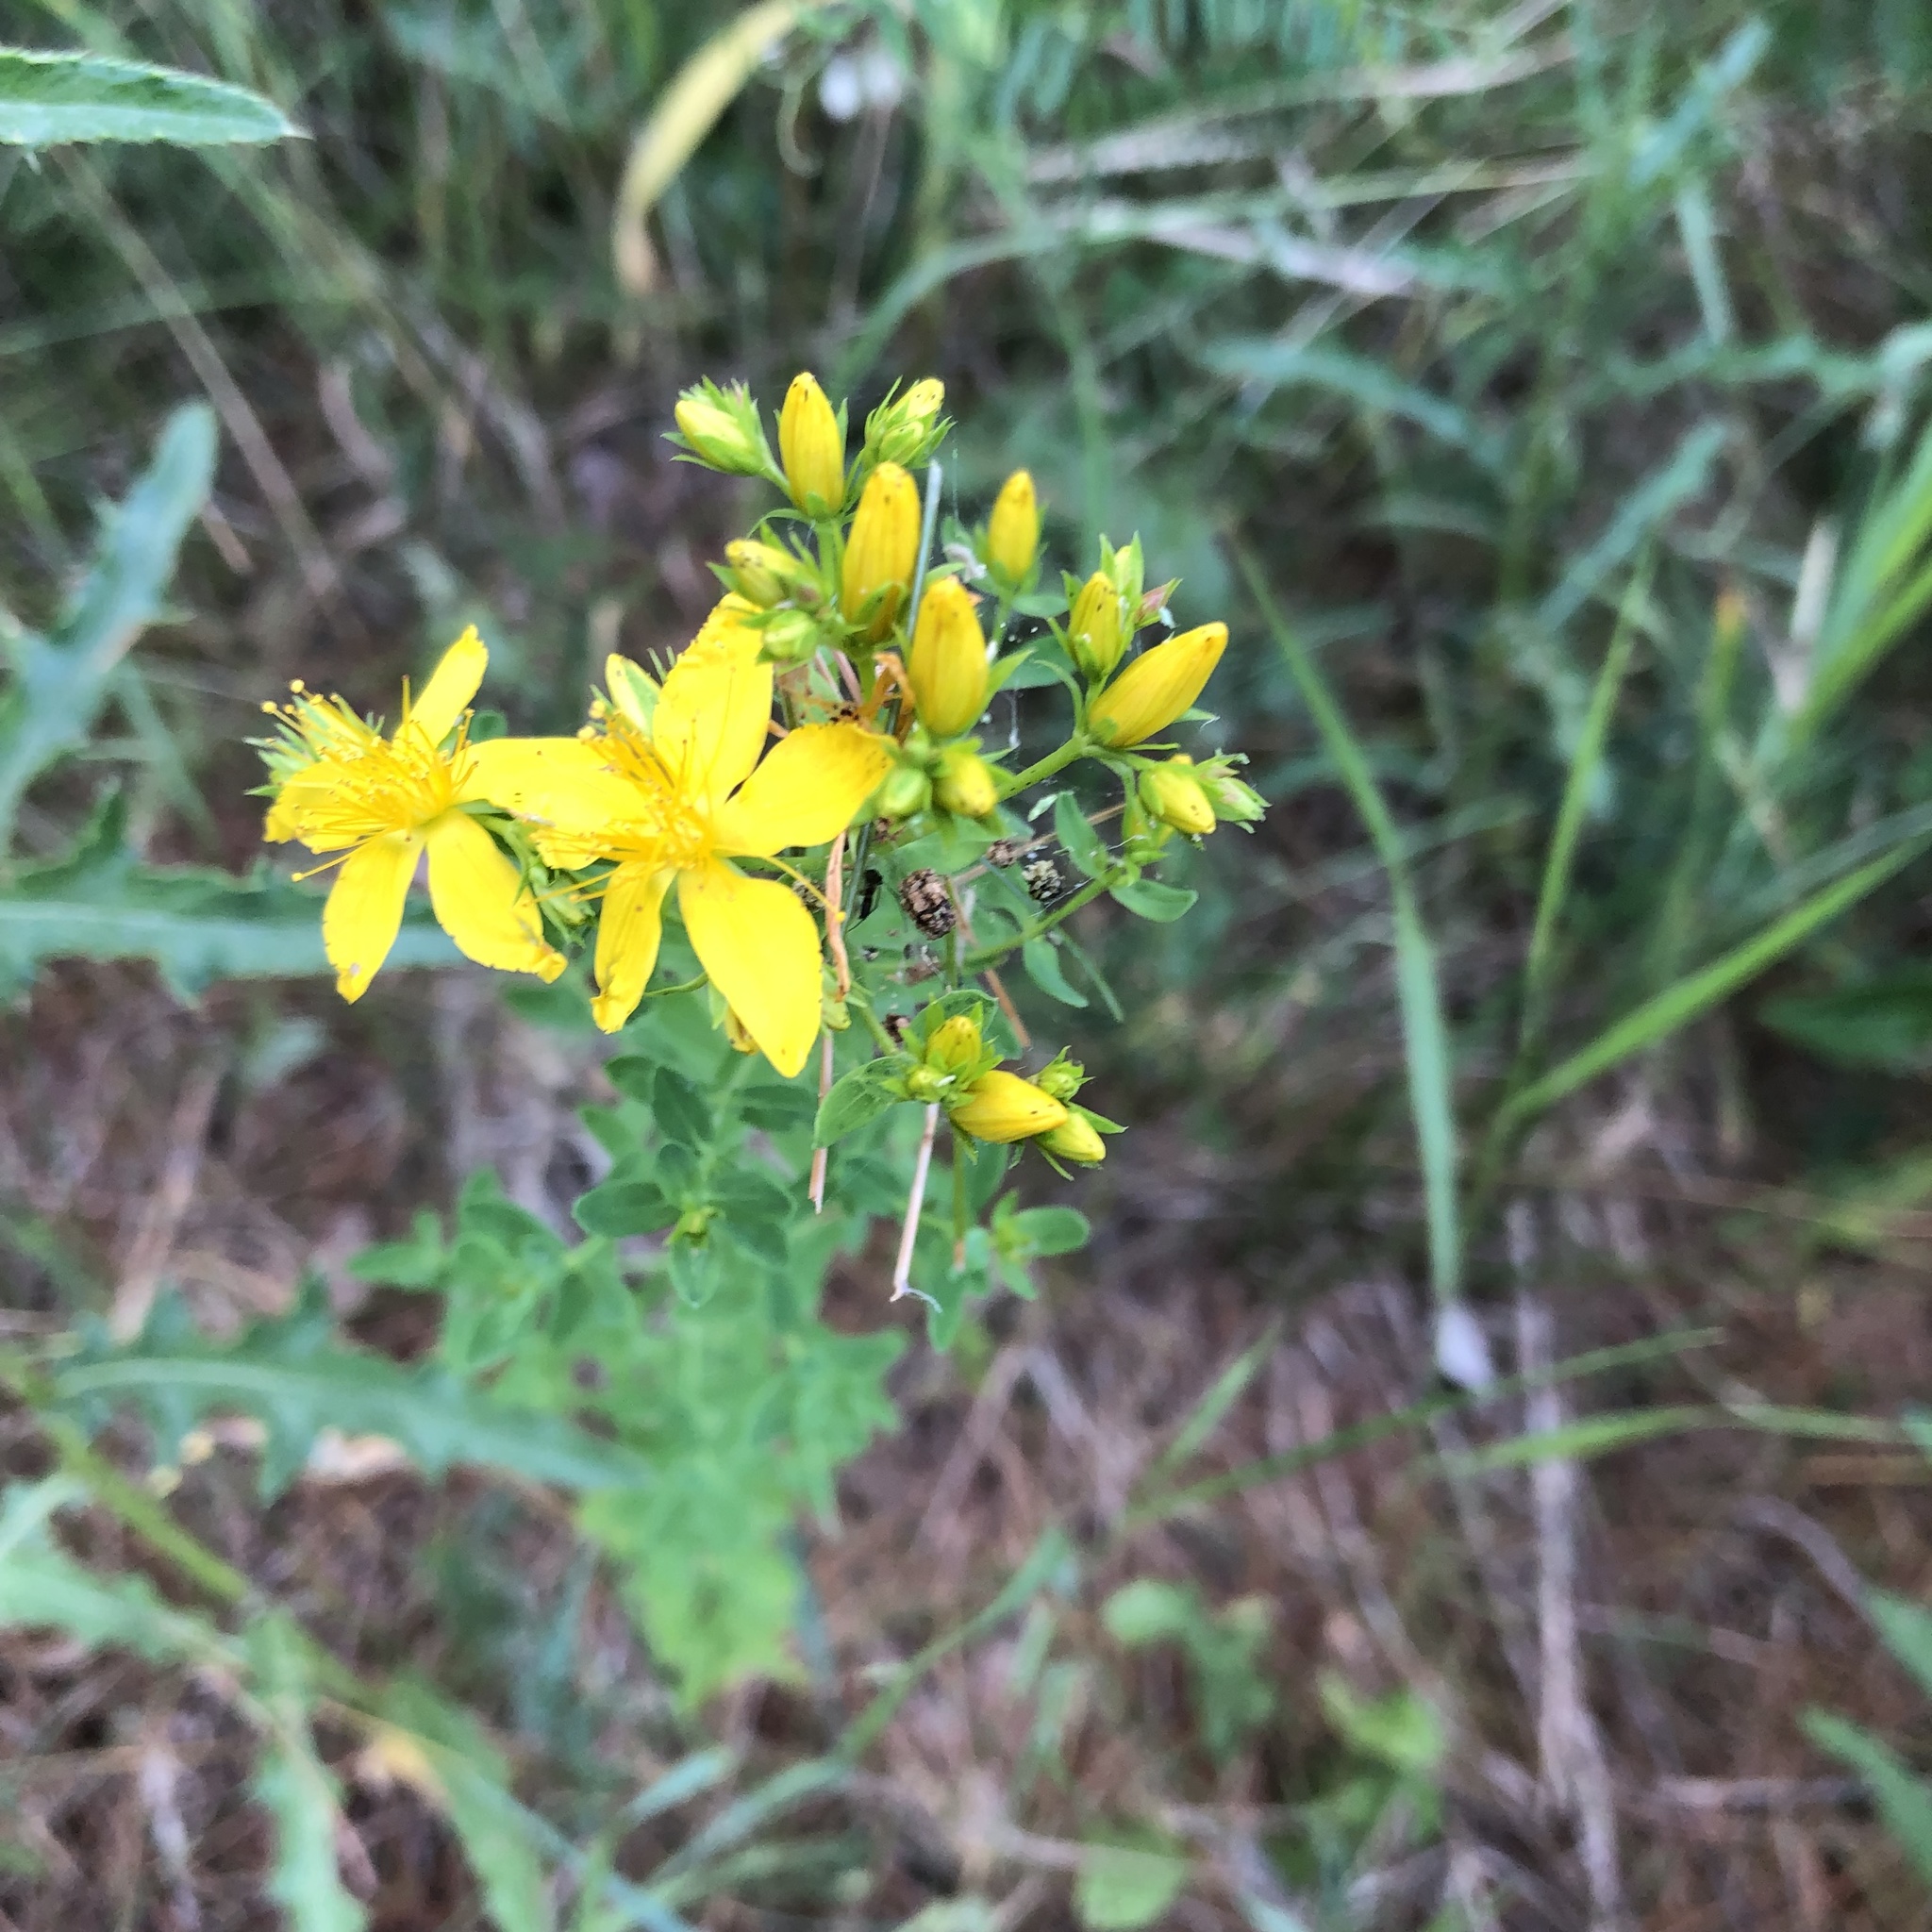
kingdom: Plantae
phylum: Tracheophyta
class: Magnoliopsida
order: Malpighiales
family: Hypericaceae
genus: Hypericum
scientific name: Hypericum perforatum
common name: Common st. johnswort
